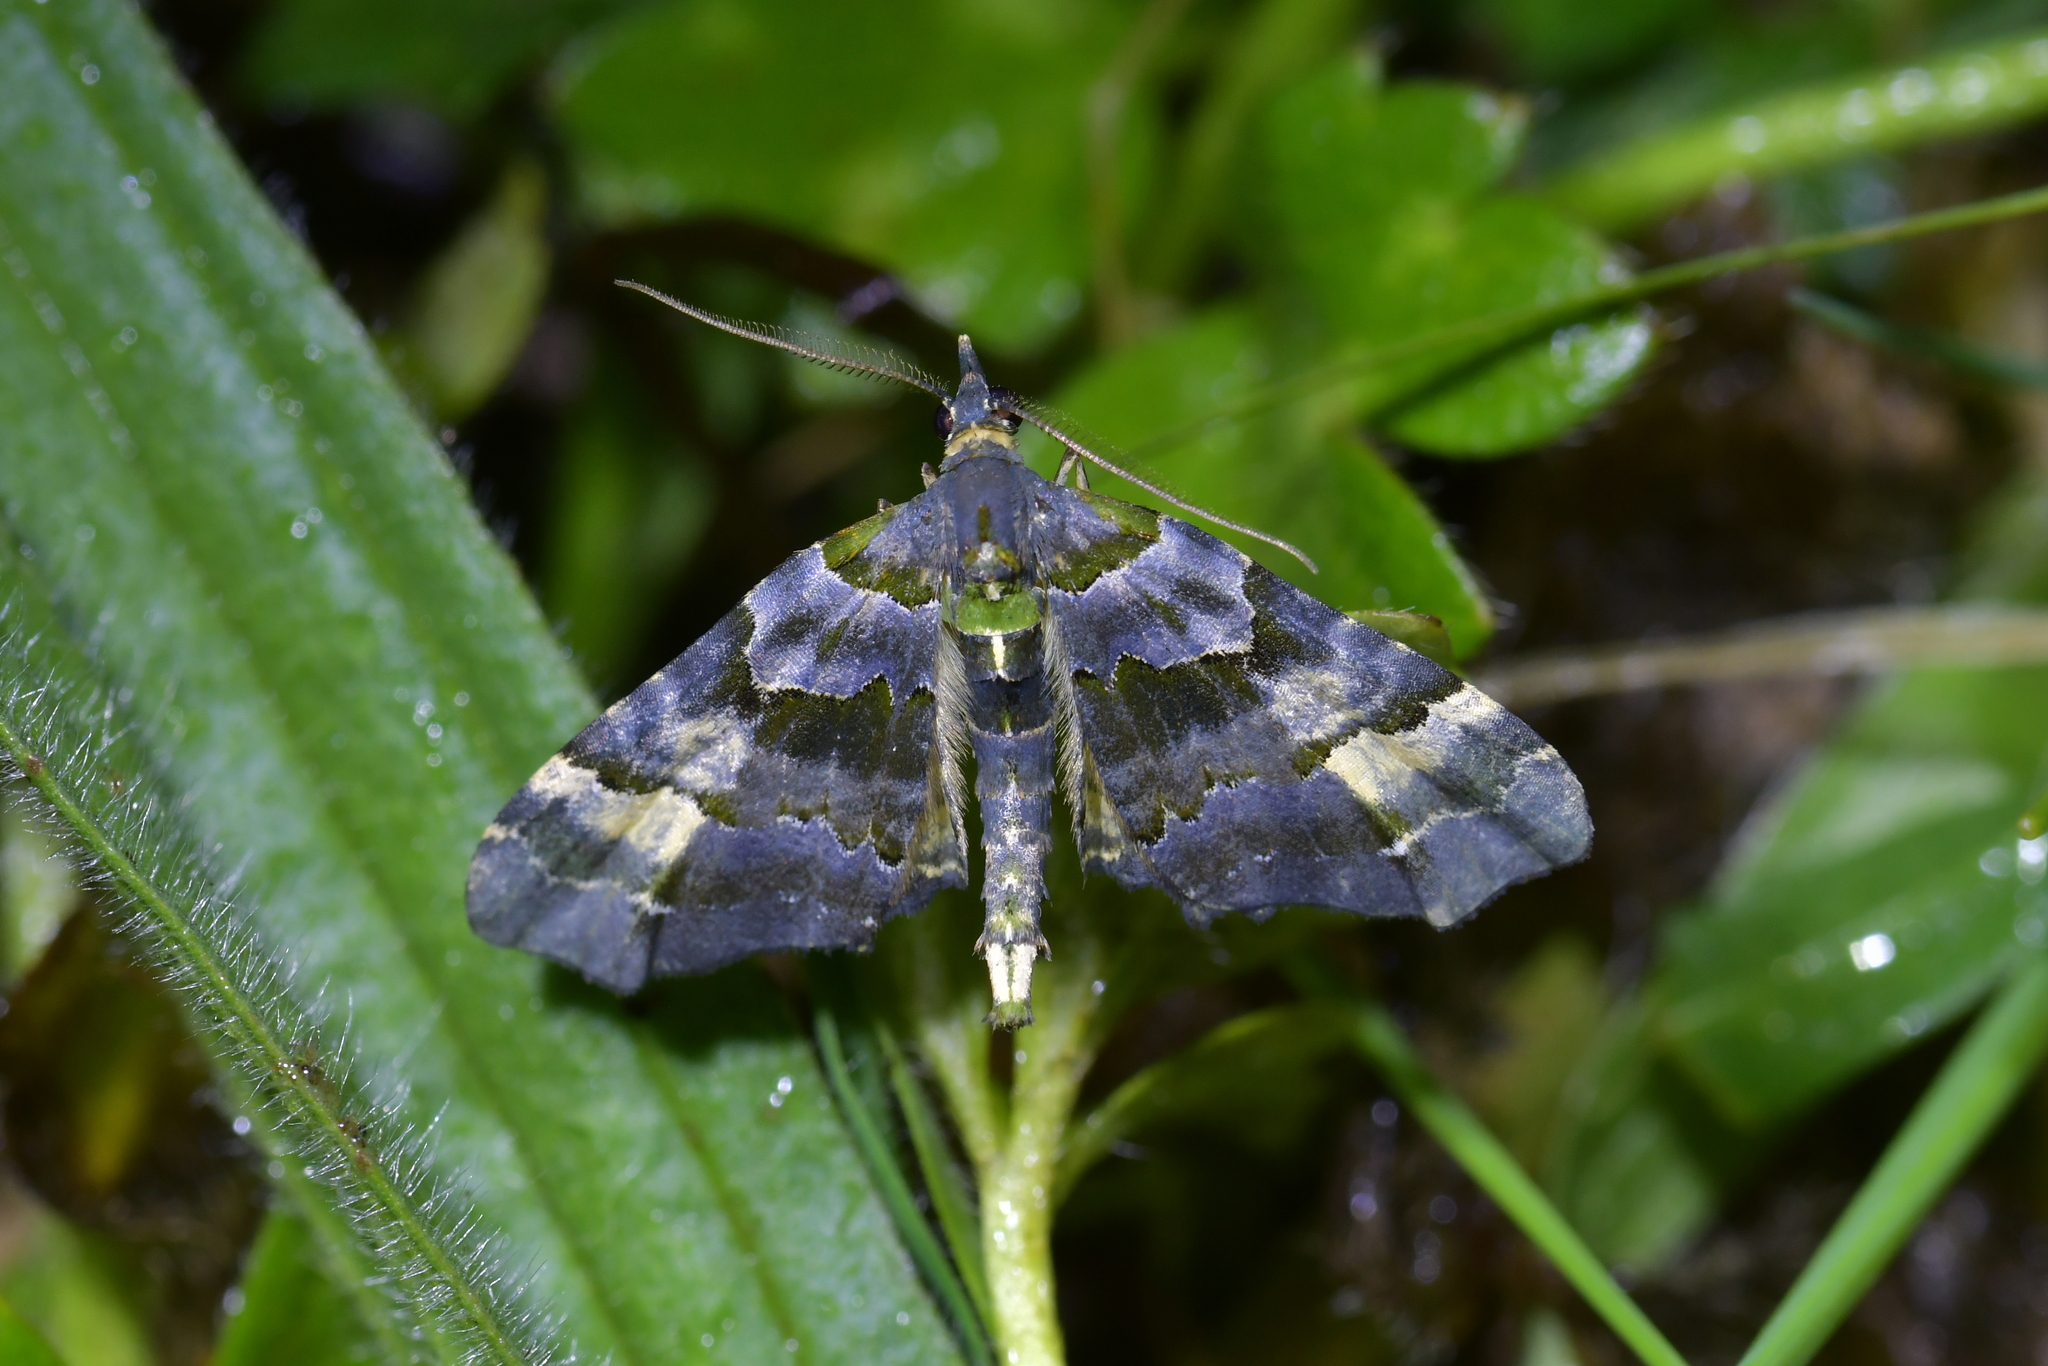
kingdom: Animalia
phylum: Arthropoda
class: Insecta
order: Lepidoptera
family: Geometridae
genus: Elvia
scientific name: Elvia glaucata
